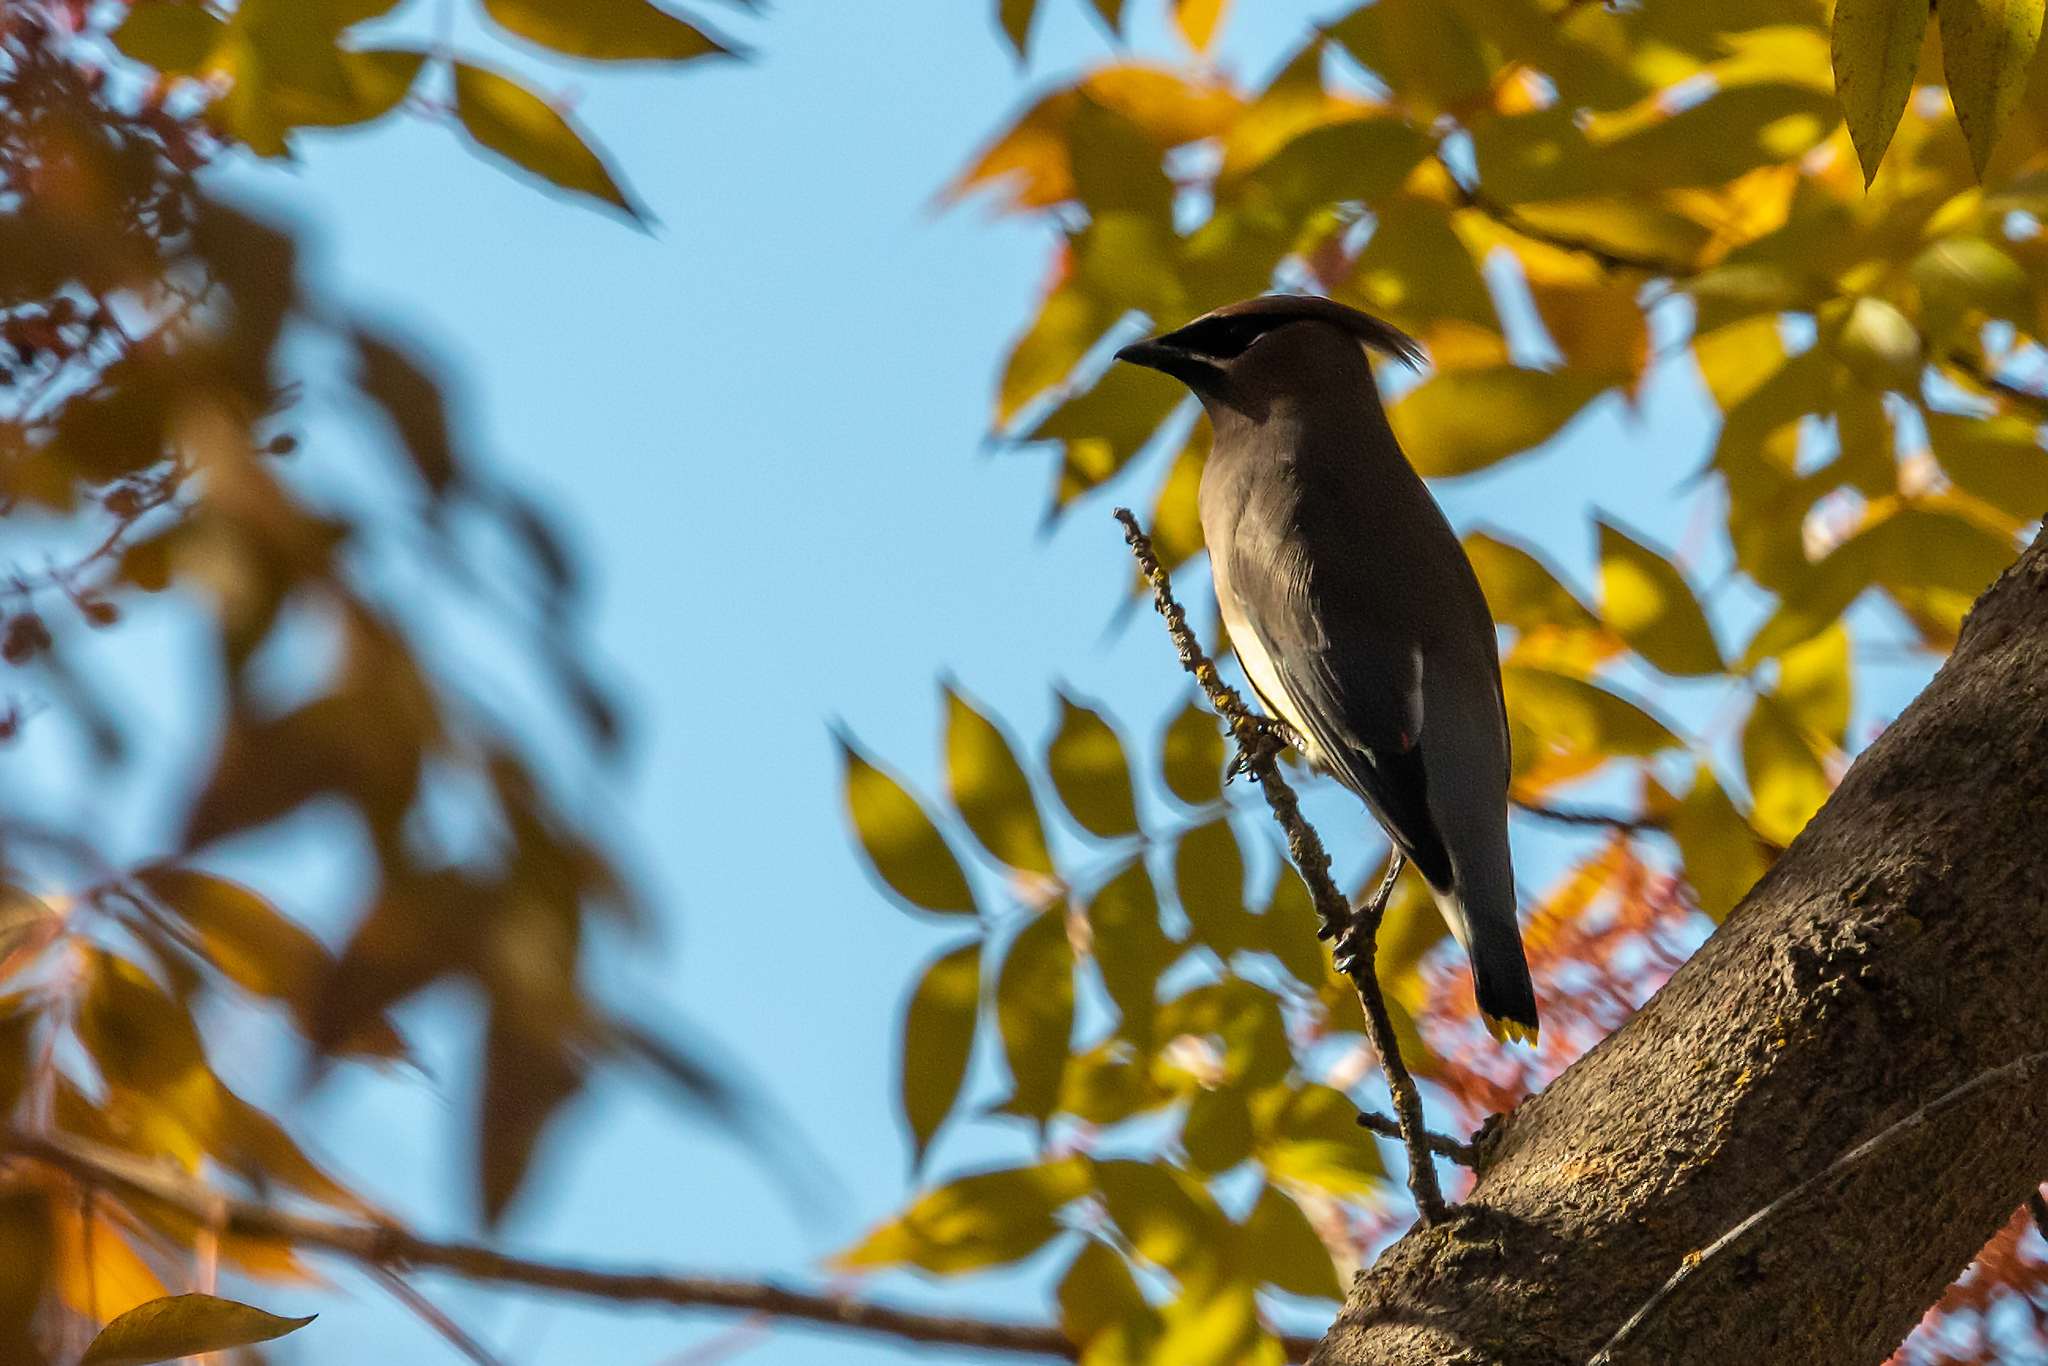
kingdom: Animalia
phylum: Chordata
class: Aves
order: Passeriformes
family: Bombycillidae
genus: Bombycilla
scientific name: Bombycilla cedrorum
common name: Cedar waxwing
